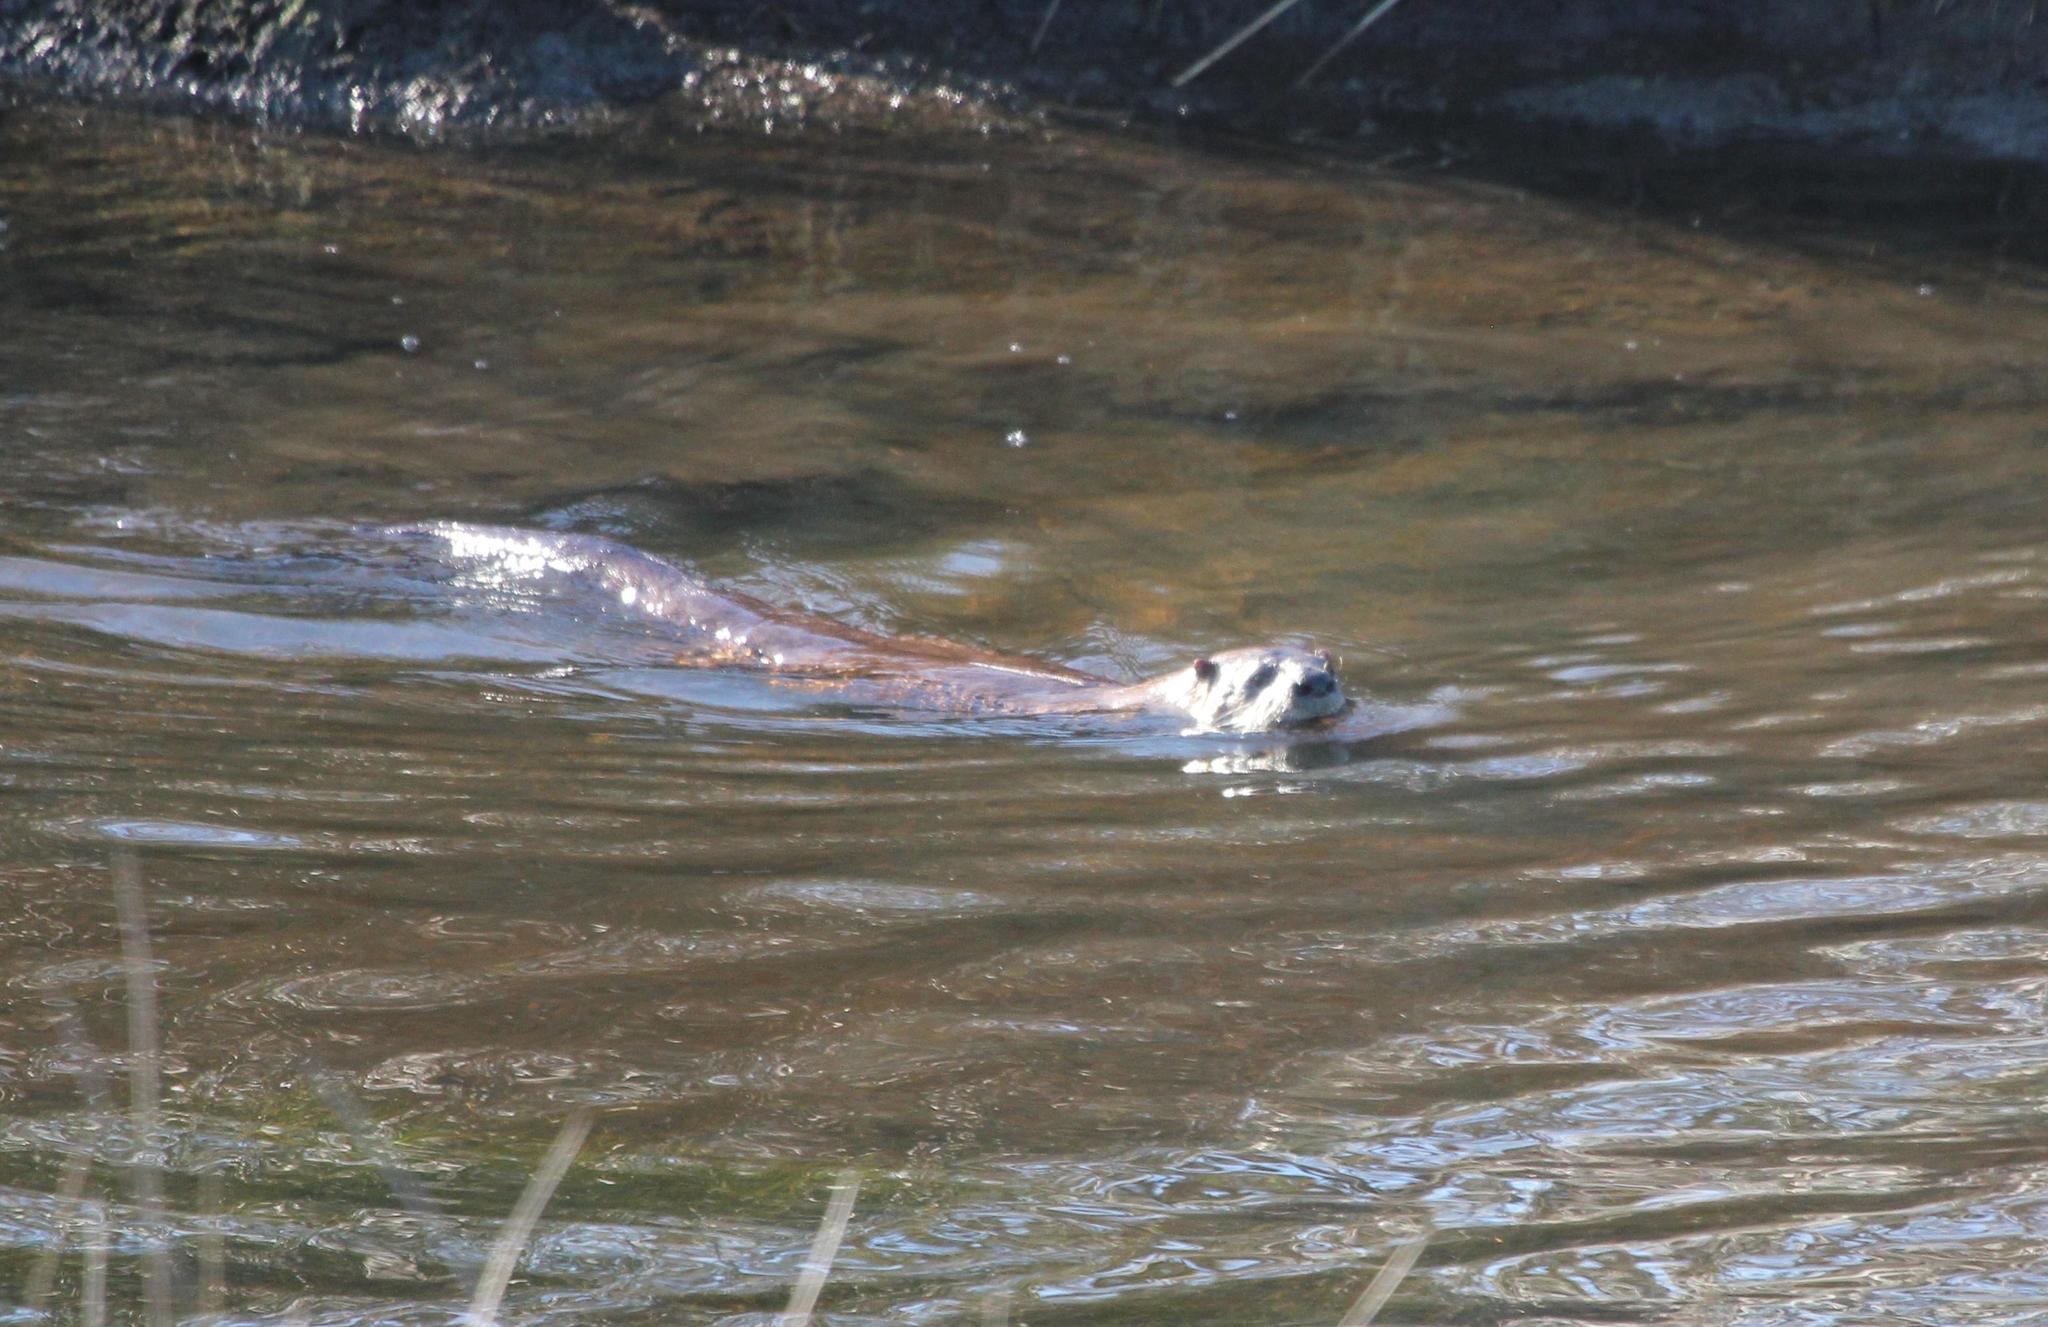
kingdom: Animalia
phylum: Chordata
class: Mammalia
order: Carnivora
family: Mustelidae
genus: Lontra
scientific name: Lontra canadensis
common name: North american river otter
